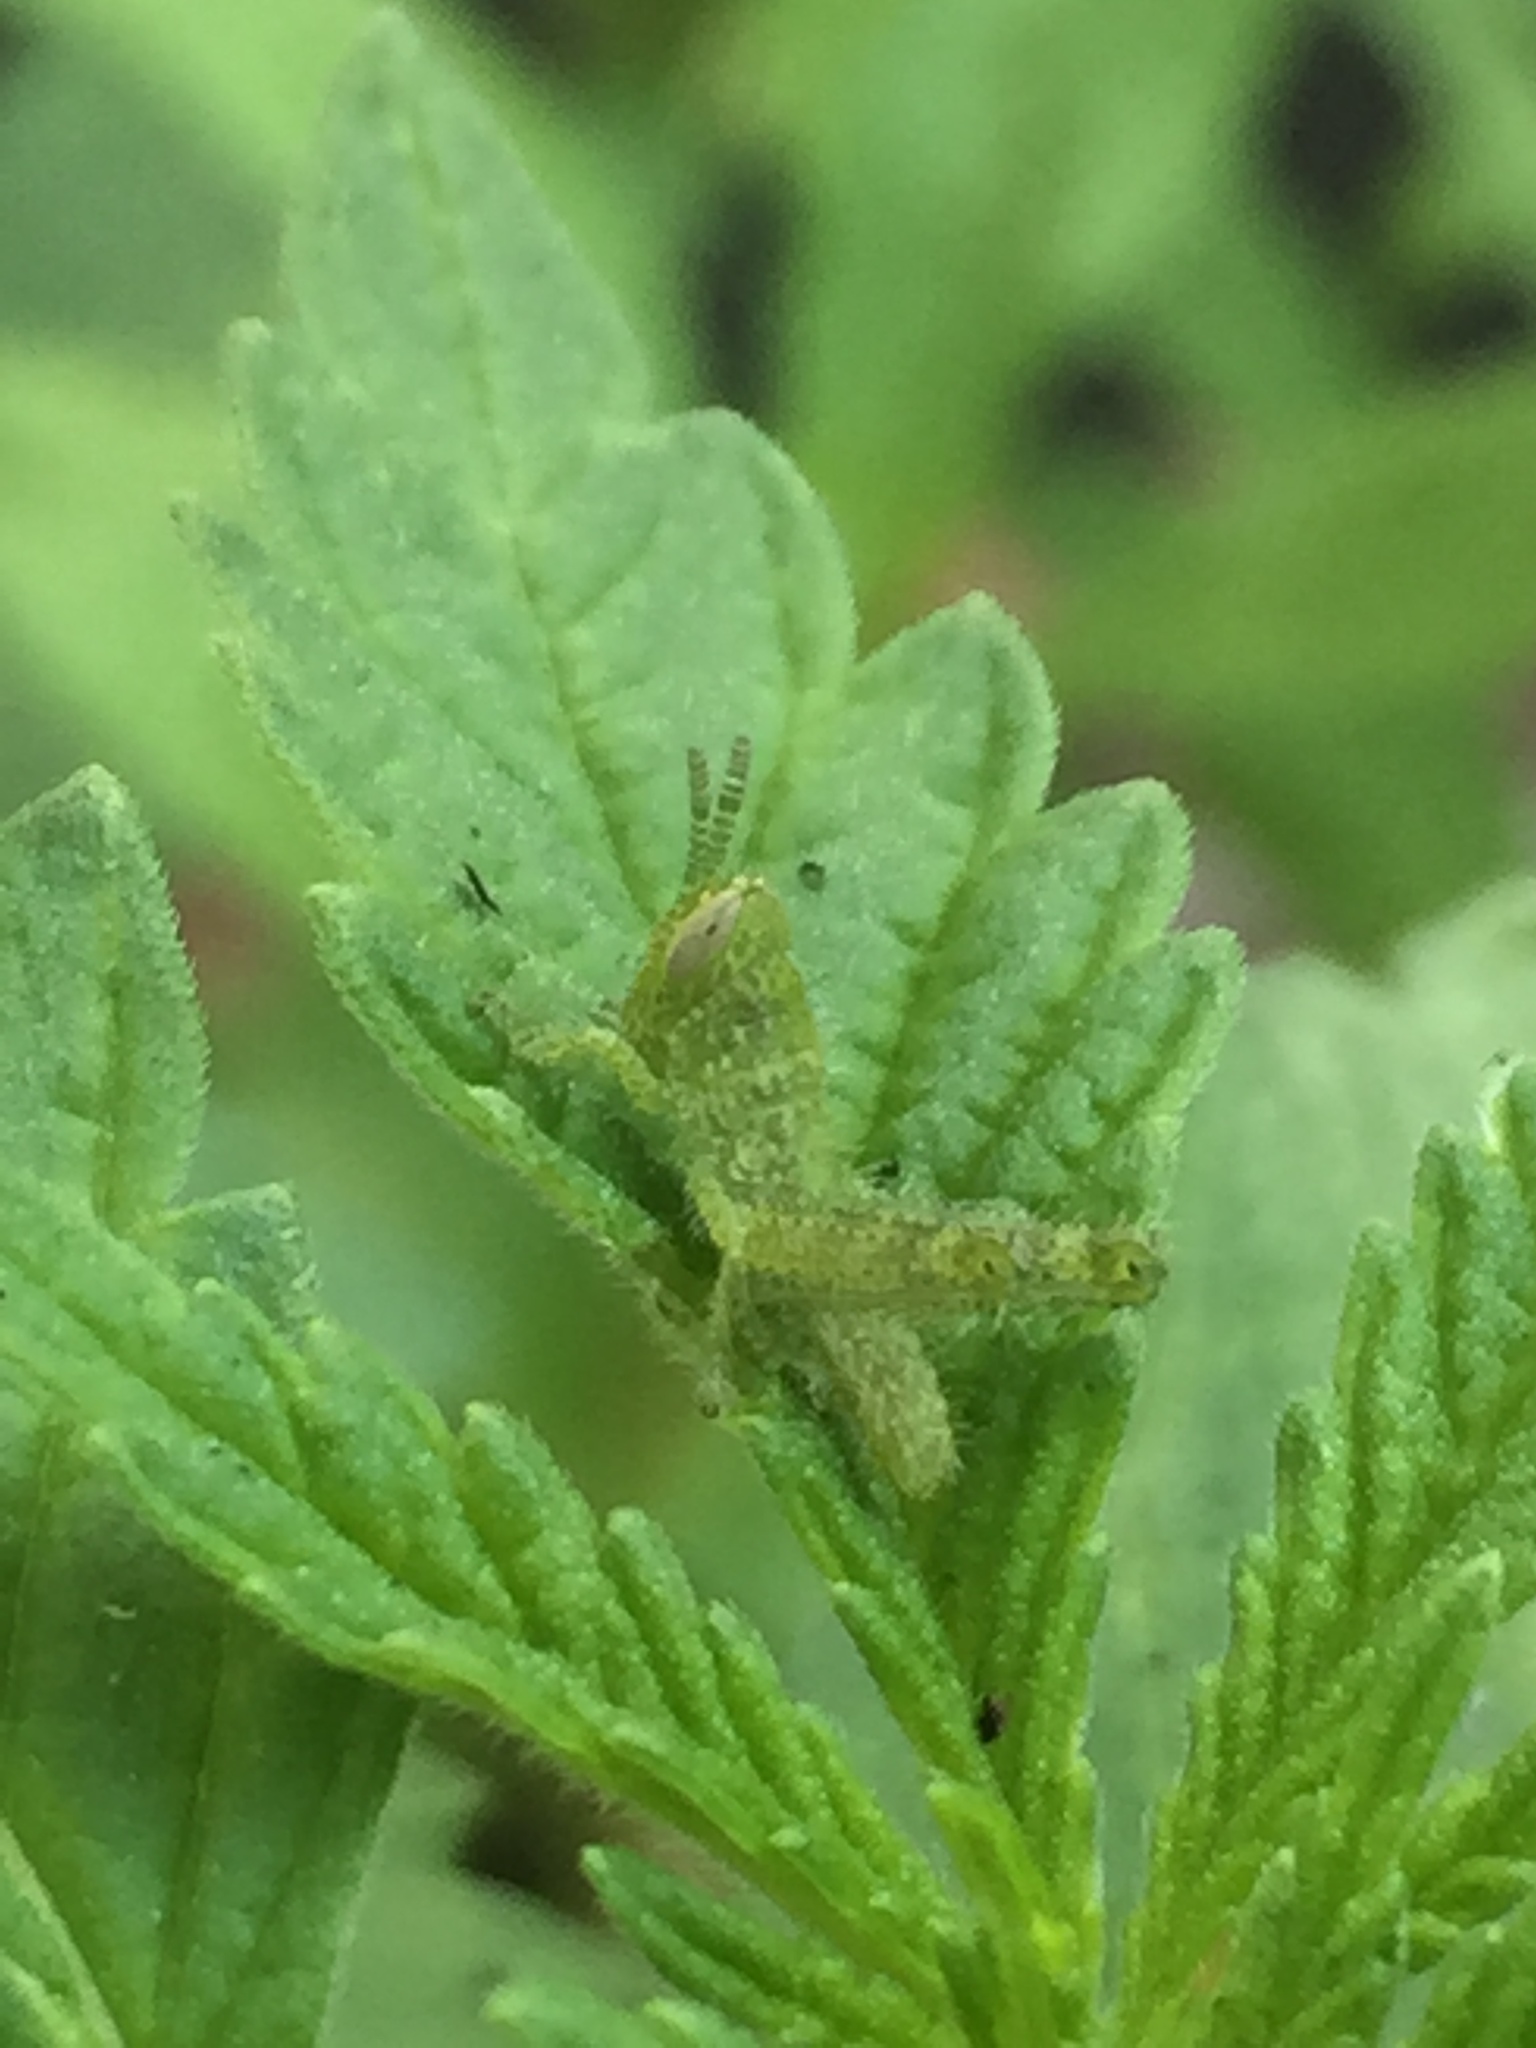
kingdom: Animalia
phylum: Arthropoda
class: Insecta
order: Orthoptera
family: Acrididae
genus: Schistocerca
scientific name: Schistocerca nitens
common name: Vagrant grasshopper
